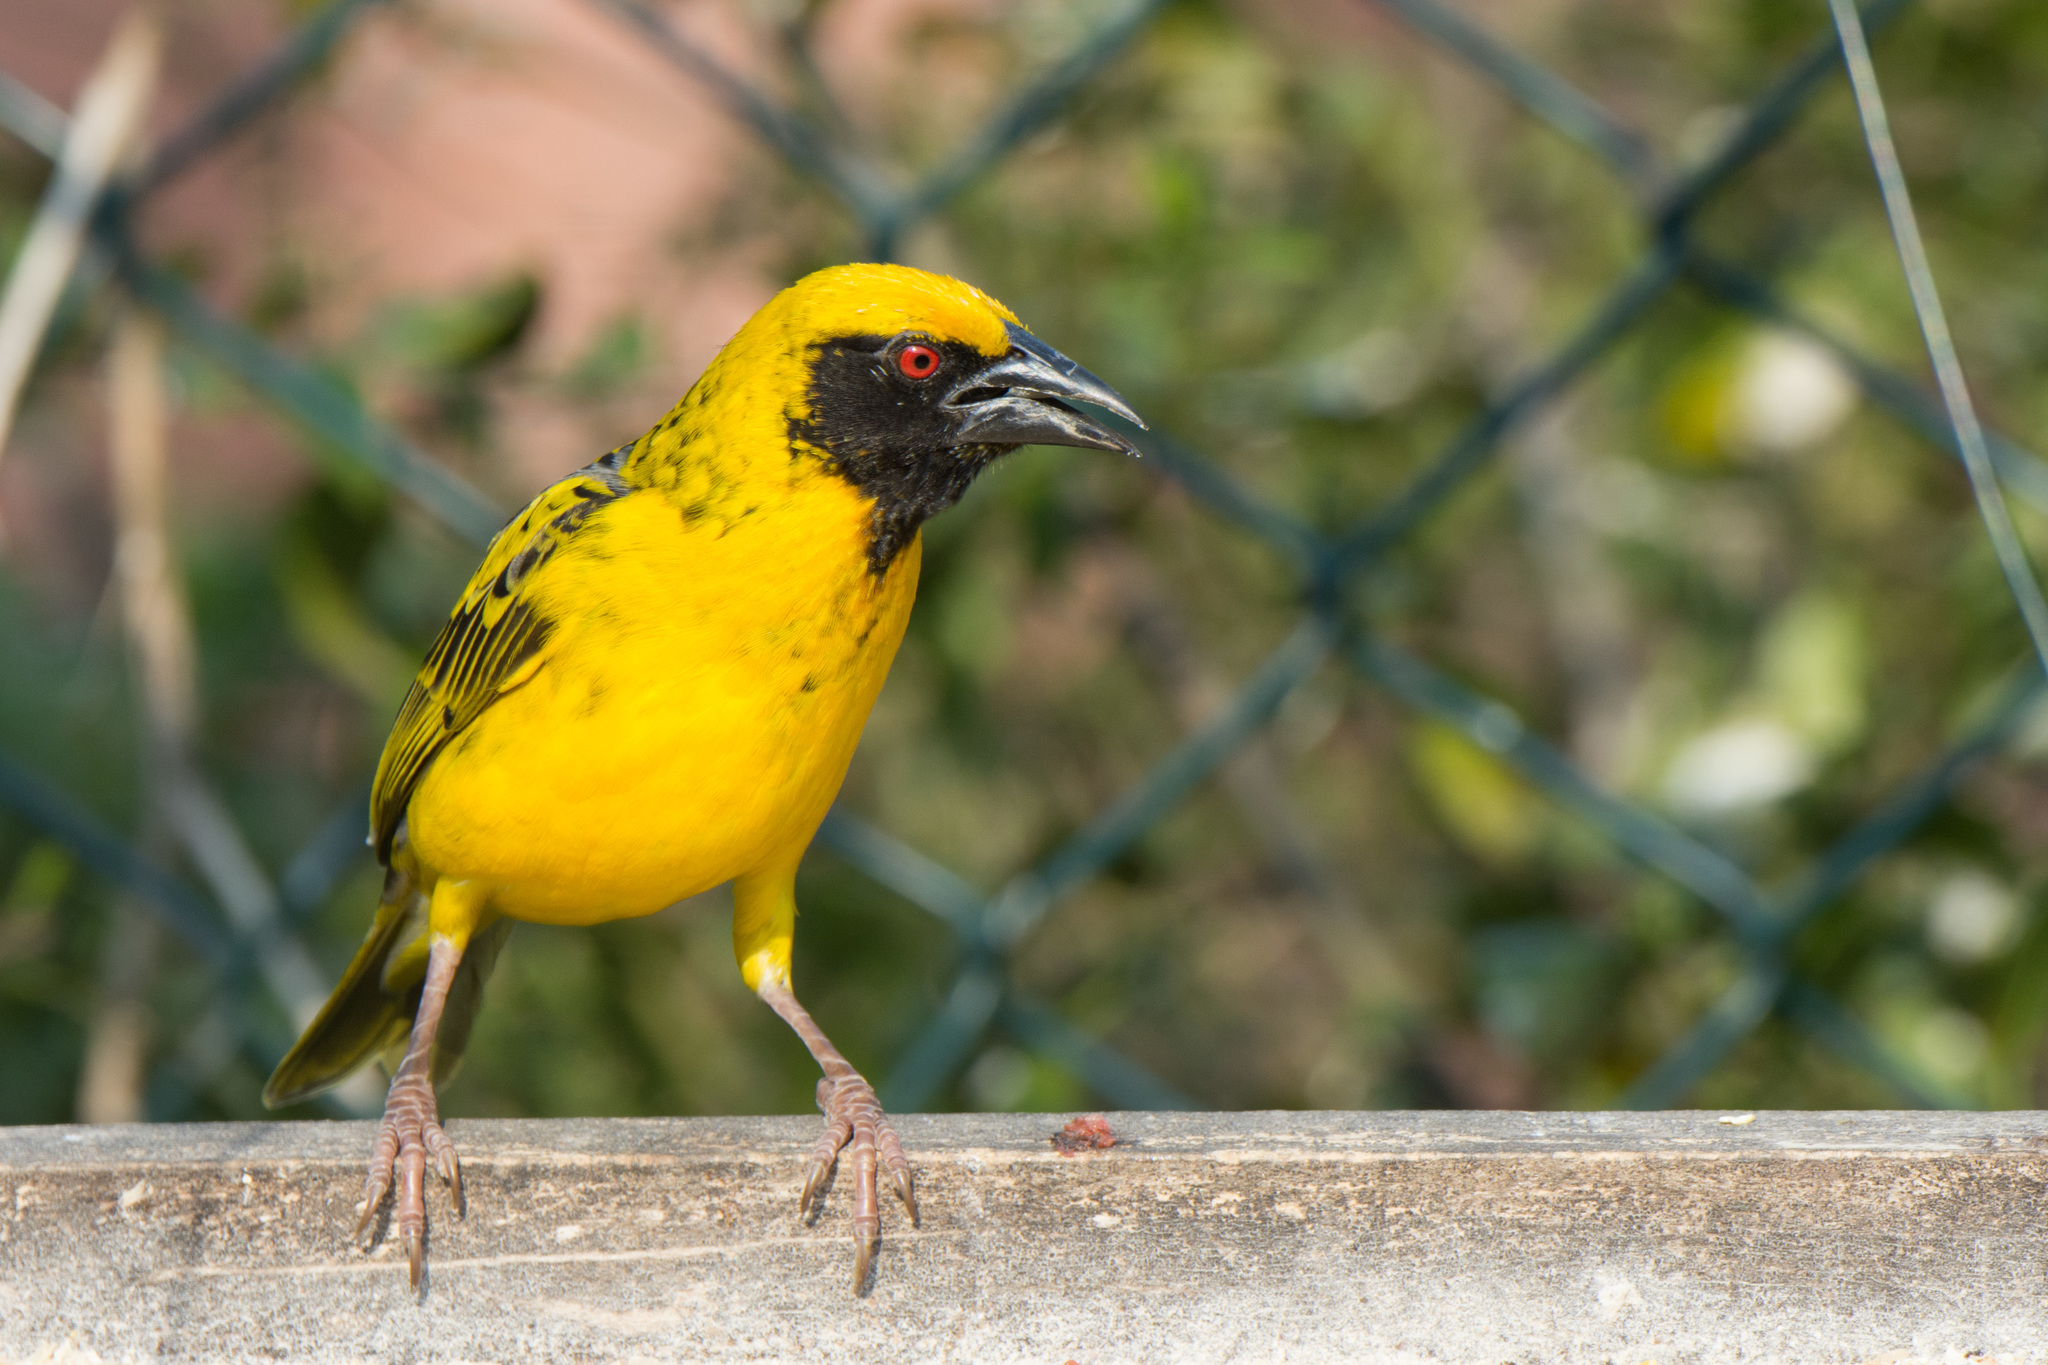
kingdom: Animalia
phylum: Chordata
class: Aves
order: Passeriformes
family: Ploceidae
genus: Ploceus
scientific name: Ploceus cucullatus
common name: Village weaver
